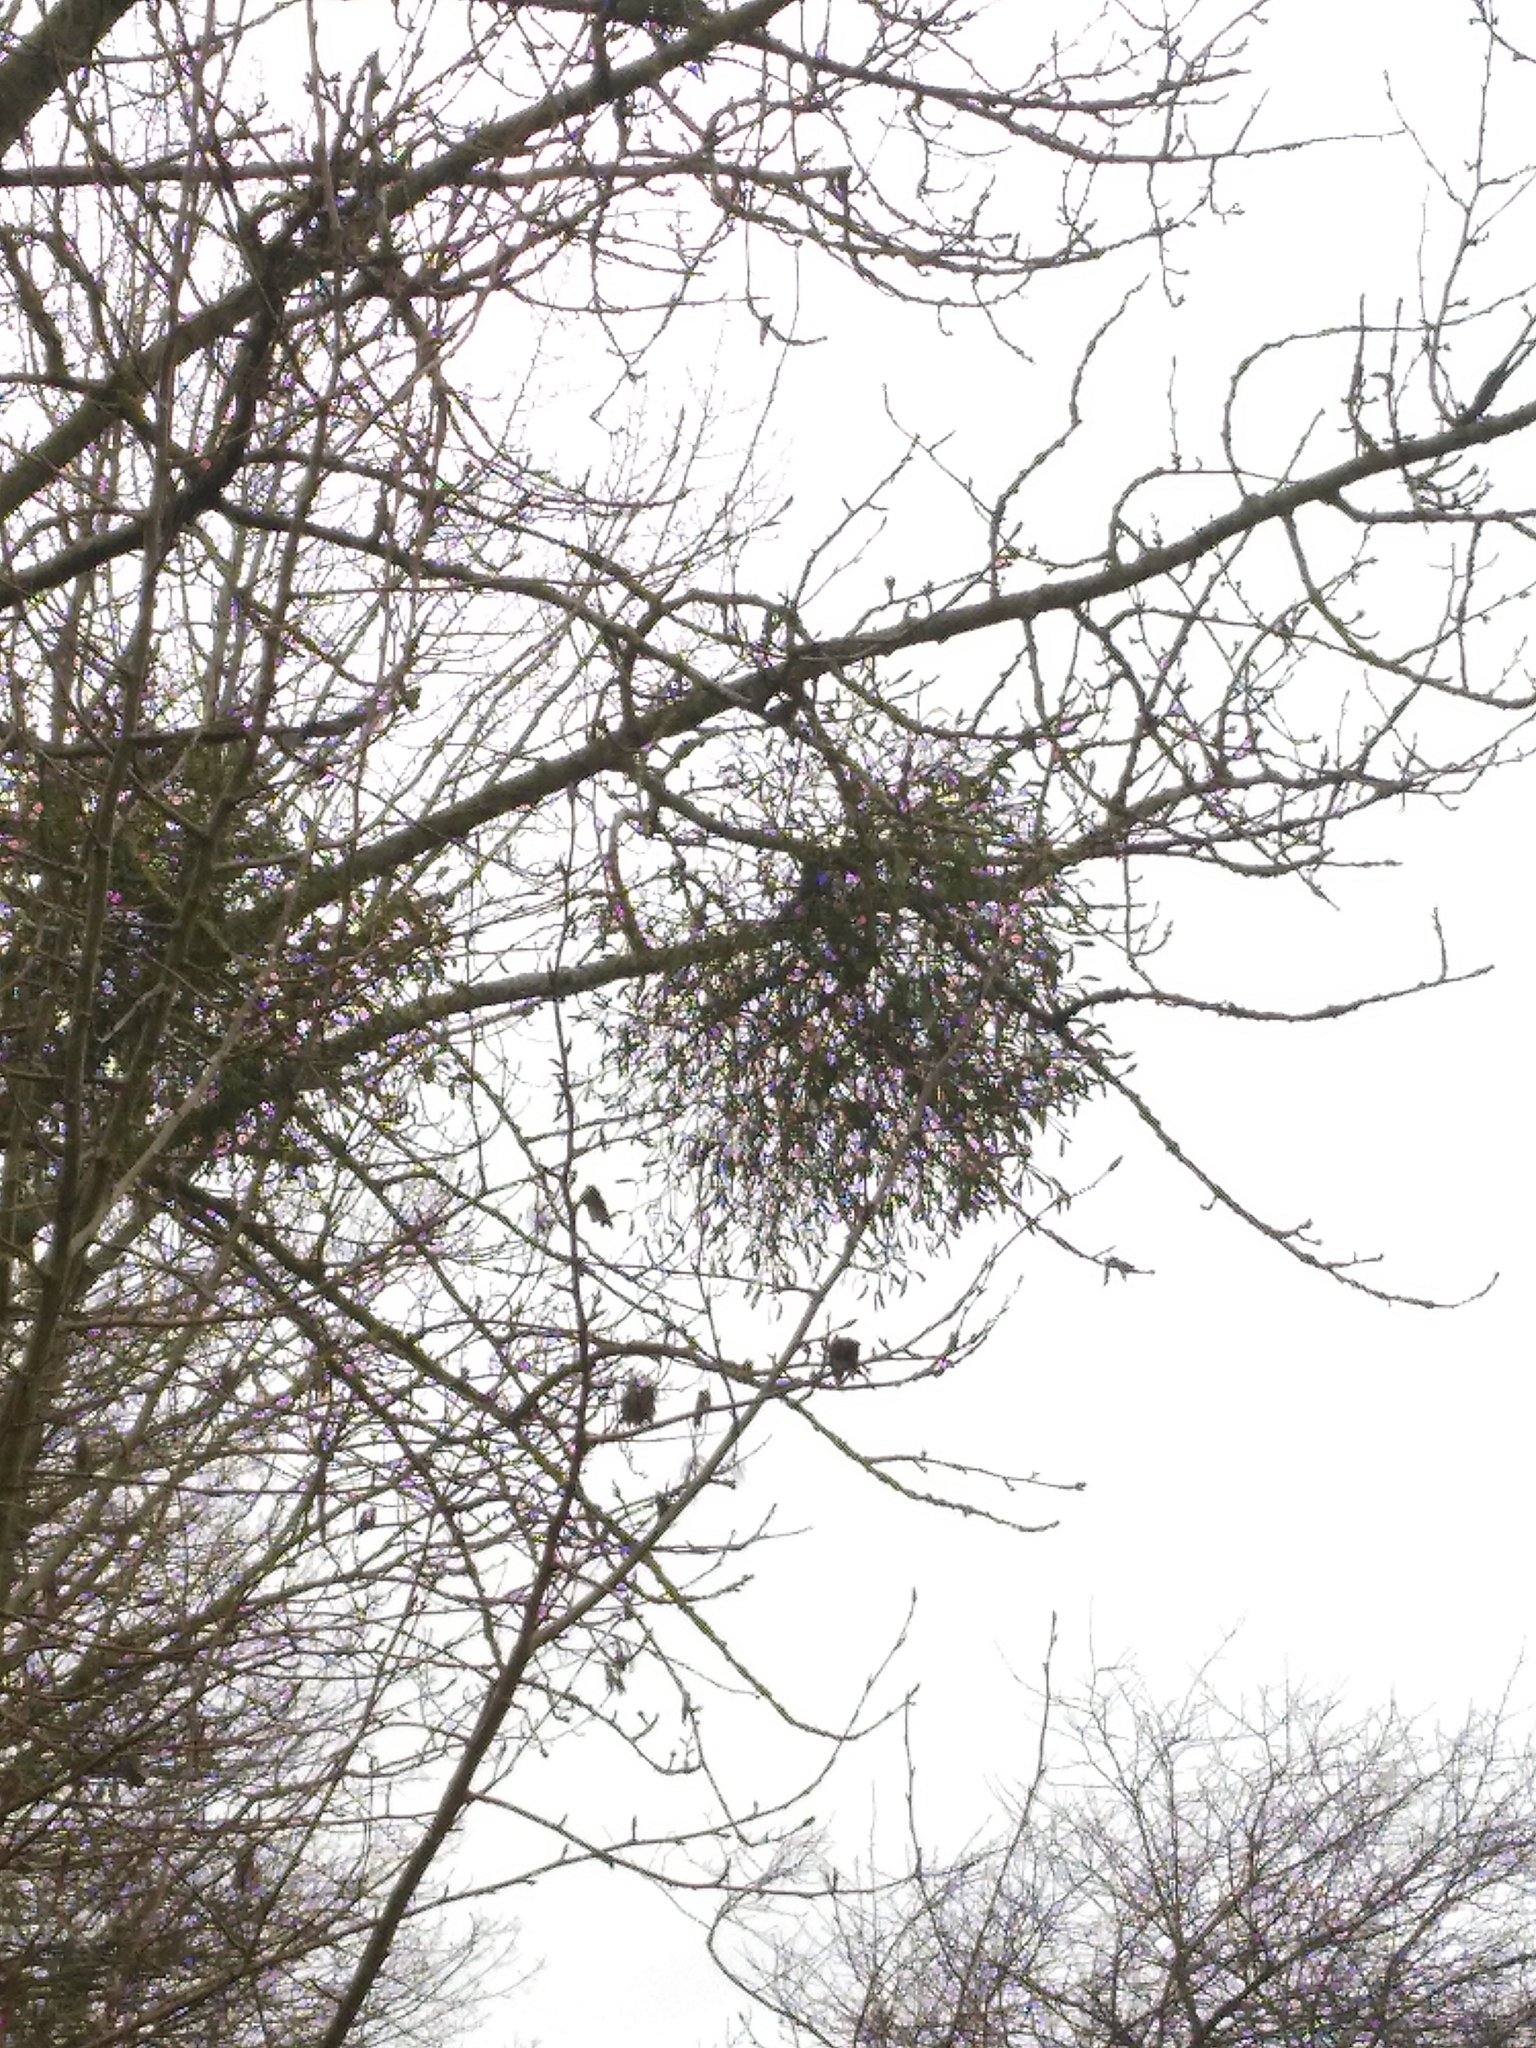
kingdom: Plantae
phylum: Tracheophyta
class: Magnoliopsida
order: Santalales
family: Viscaceae
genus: Viscum
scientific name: Viscum album
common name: Mistletoe
